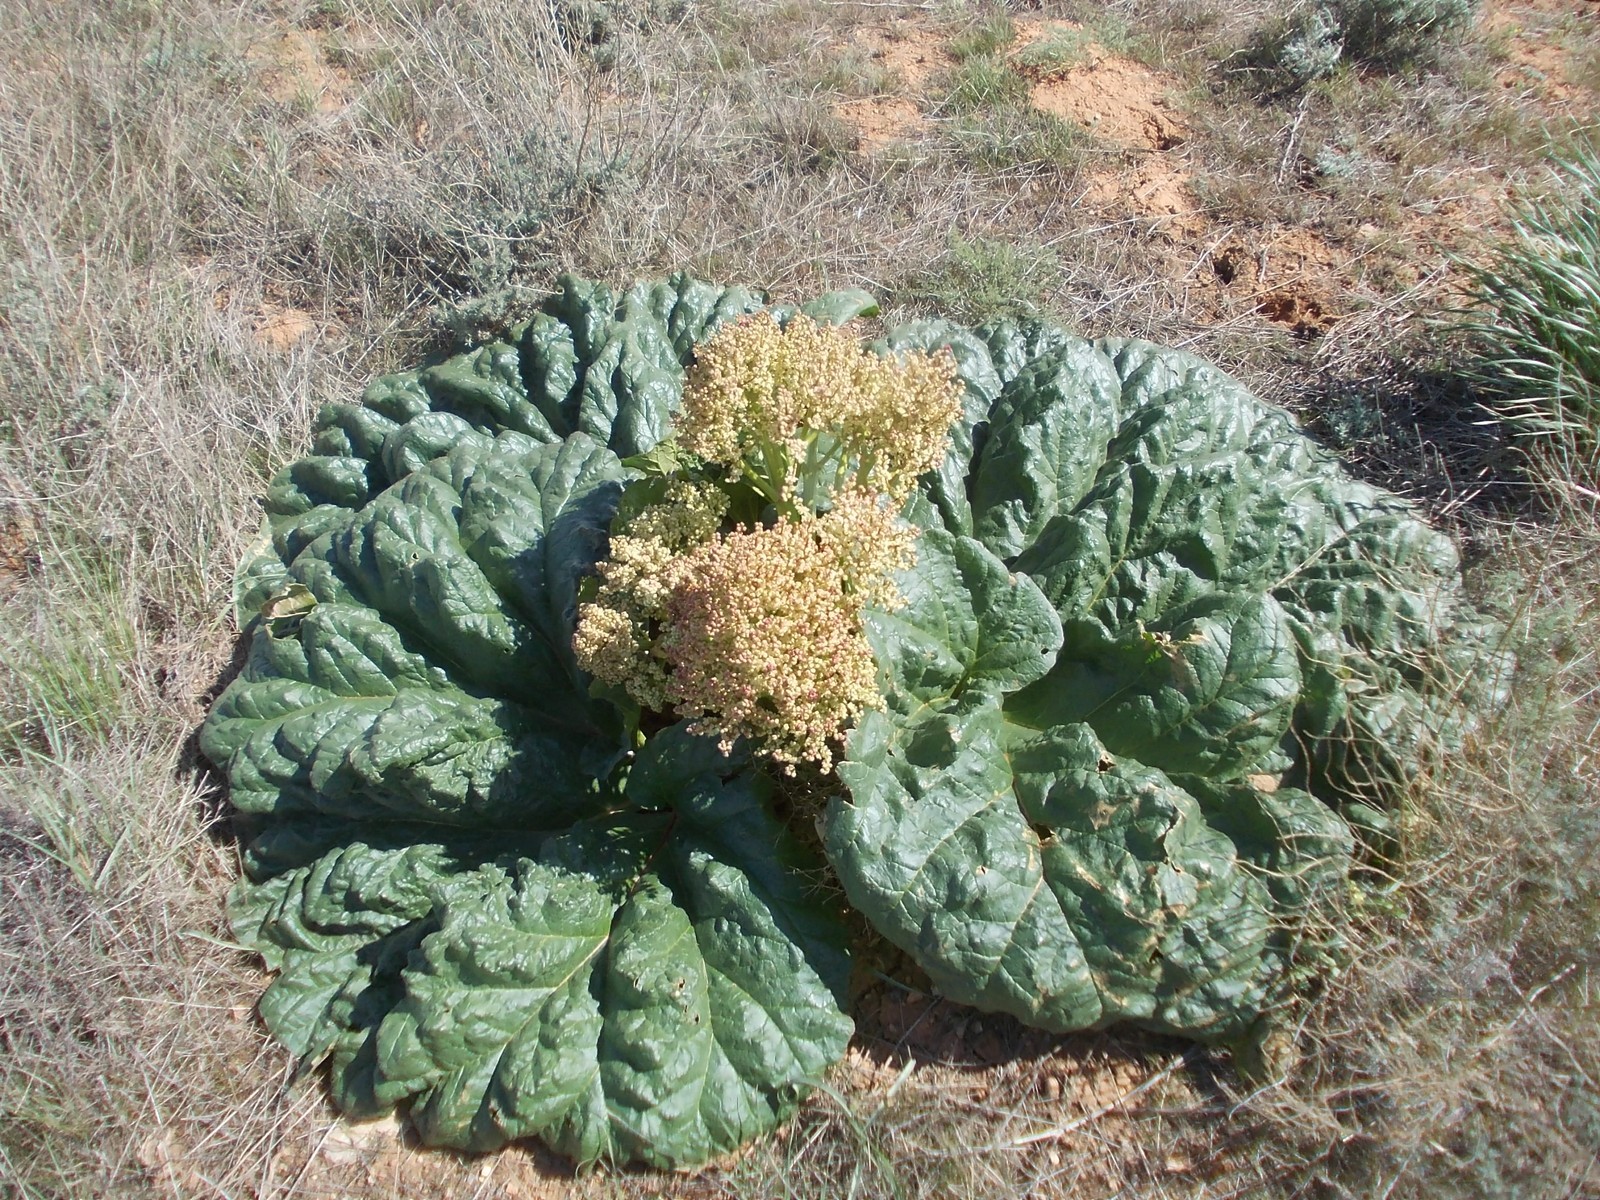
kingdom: Plantae
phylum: Tracheophyta
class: Magnoliopsida
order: Caryophyllales
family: Polygonaceae
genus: Rheum
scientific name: Rheum tataricum
